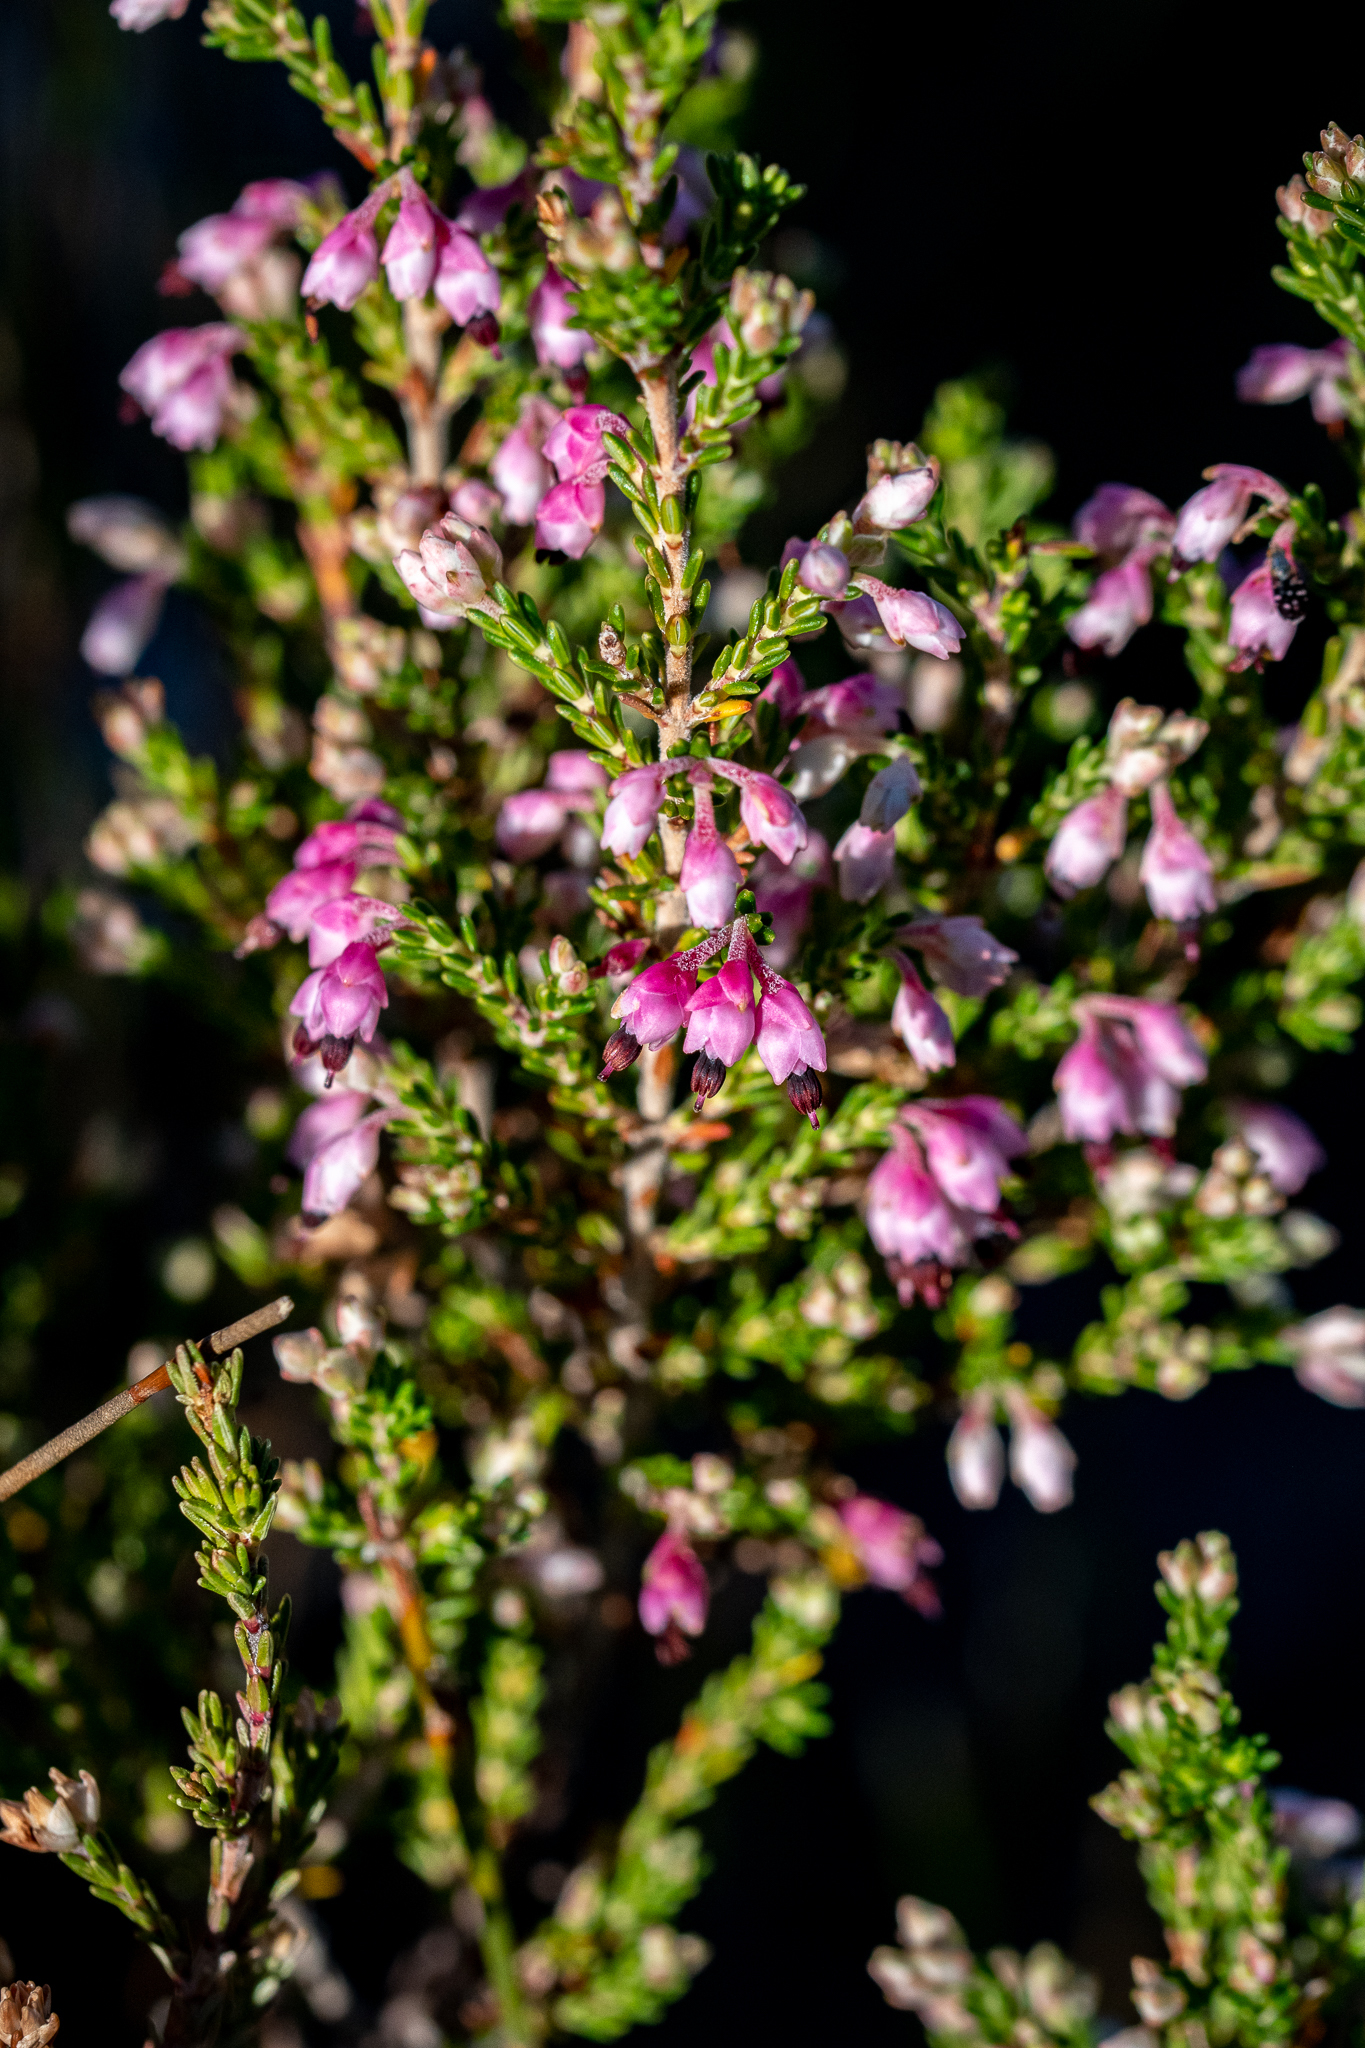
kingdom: Plantae
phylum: Tracheophyta
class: Magnoliopsida
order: Ericales
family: Ericaceae
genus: Erica
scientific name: Erica placentiflora
